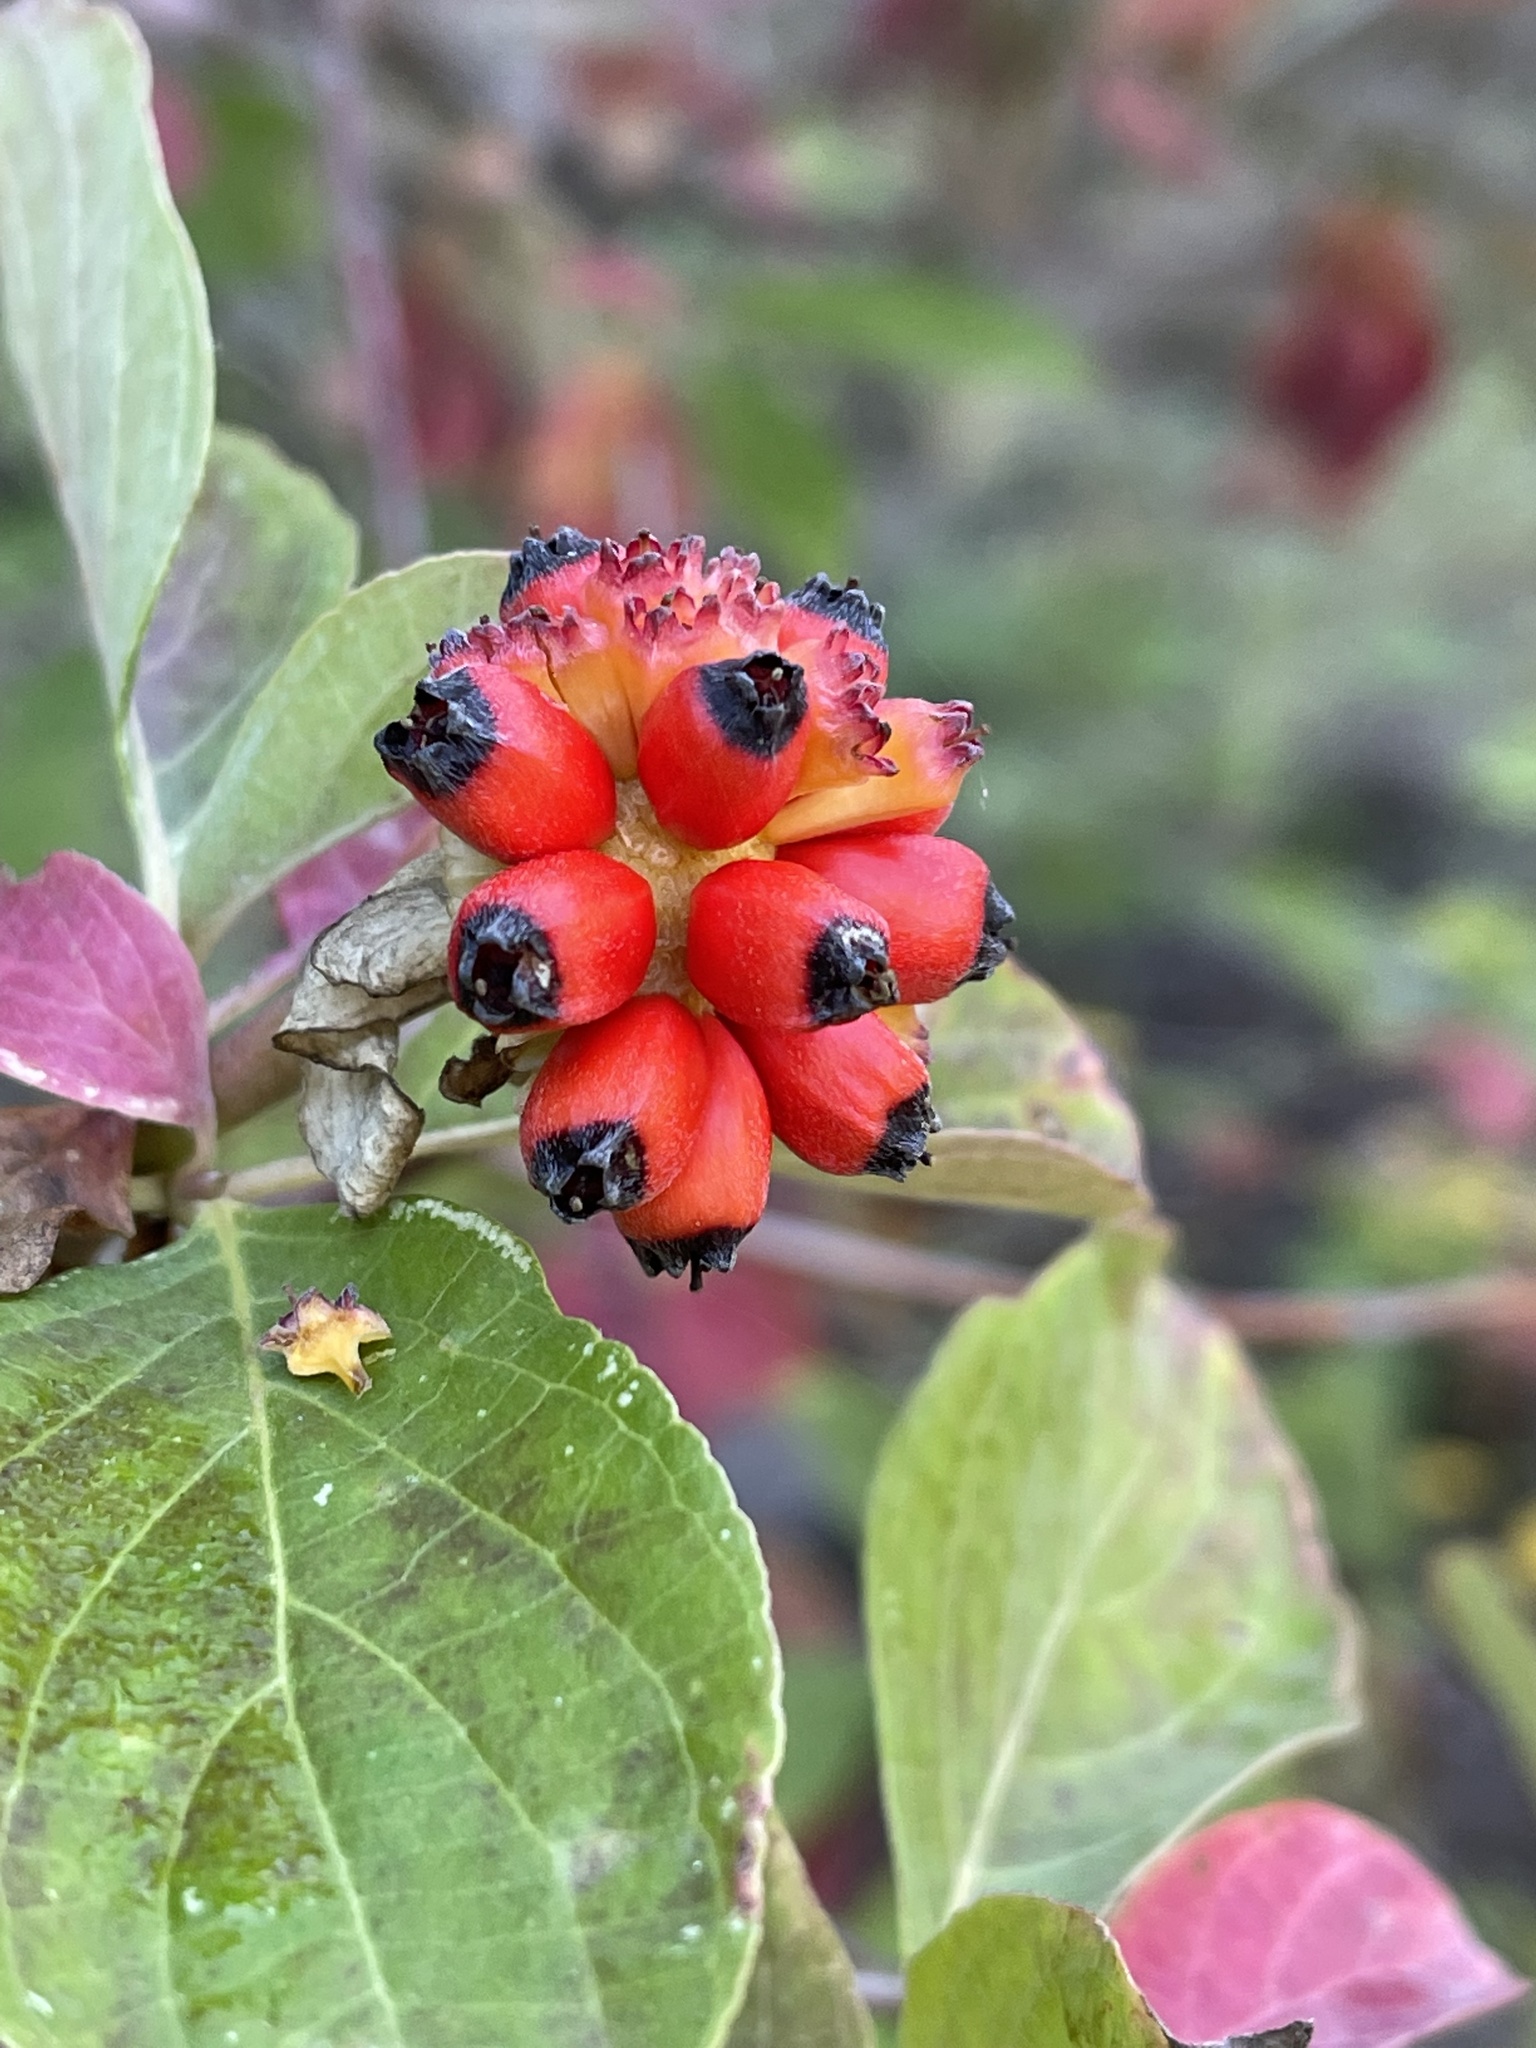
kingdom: Plantae
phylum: Tracheophyta
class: Magnoliopsida
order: Cornales
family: Cornaceae
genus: Cornus
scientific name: Cornus nuttallii
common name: Pacific dogwood
